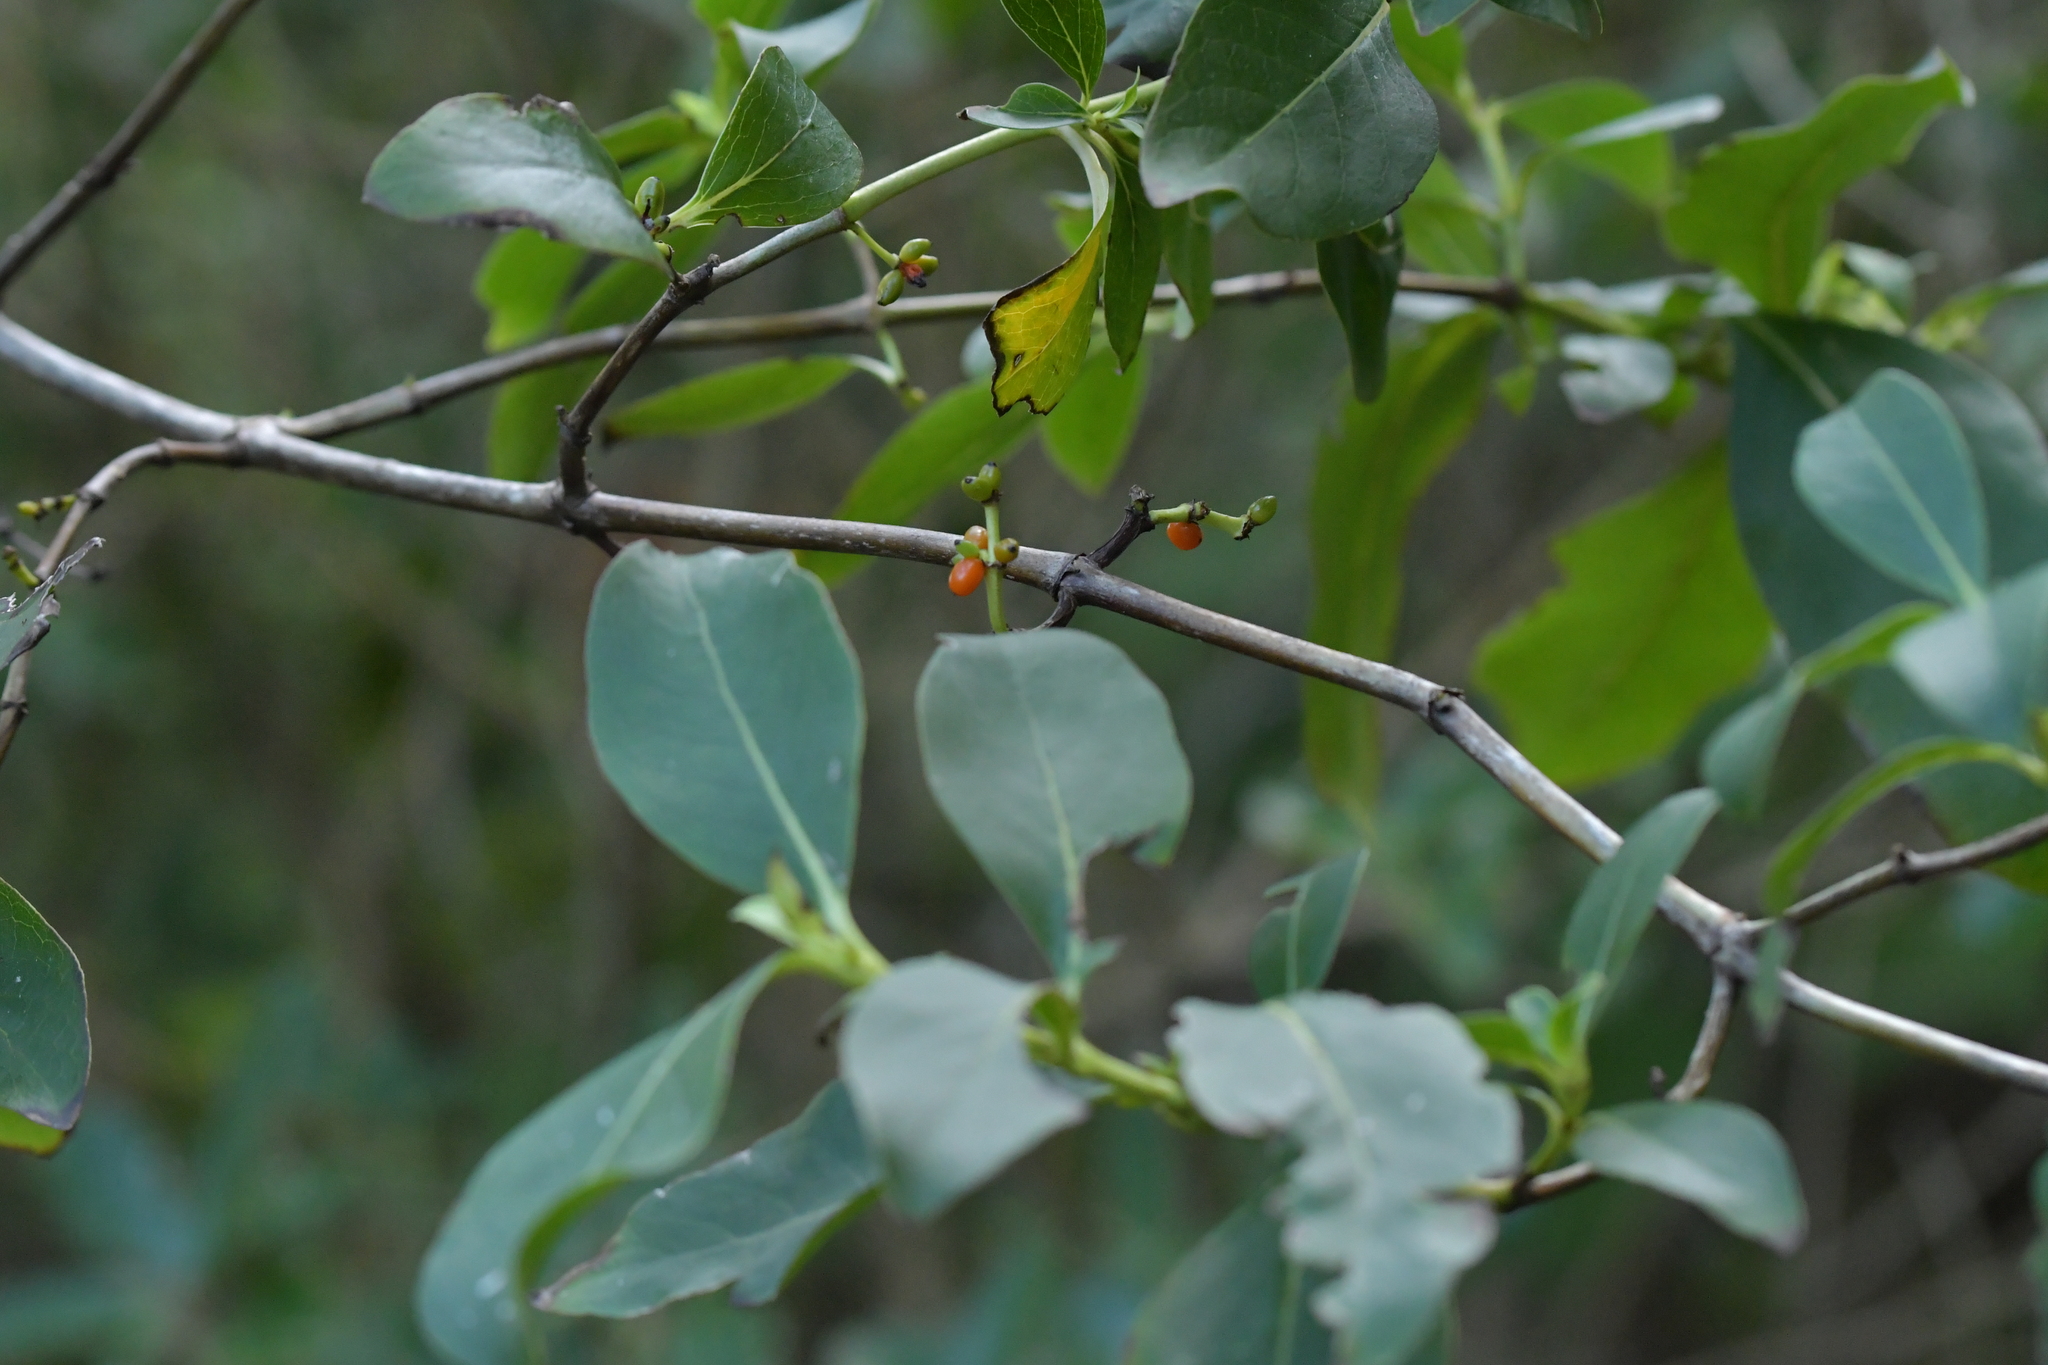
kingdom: Plantae
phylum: Tracheophyta
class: Magnoliopsida
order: Gentianales
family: Rubiaceae
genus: Coprosma
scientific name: Coprosma robusta
